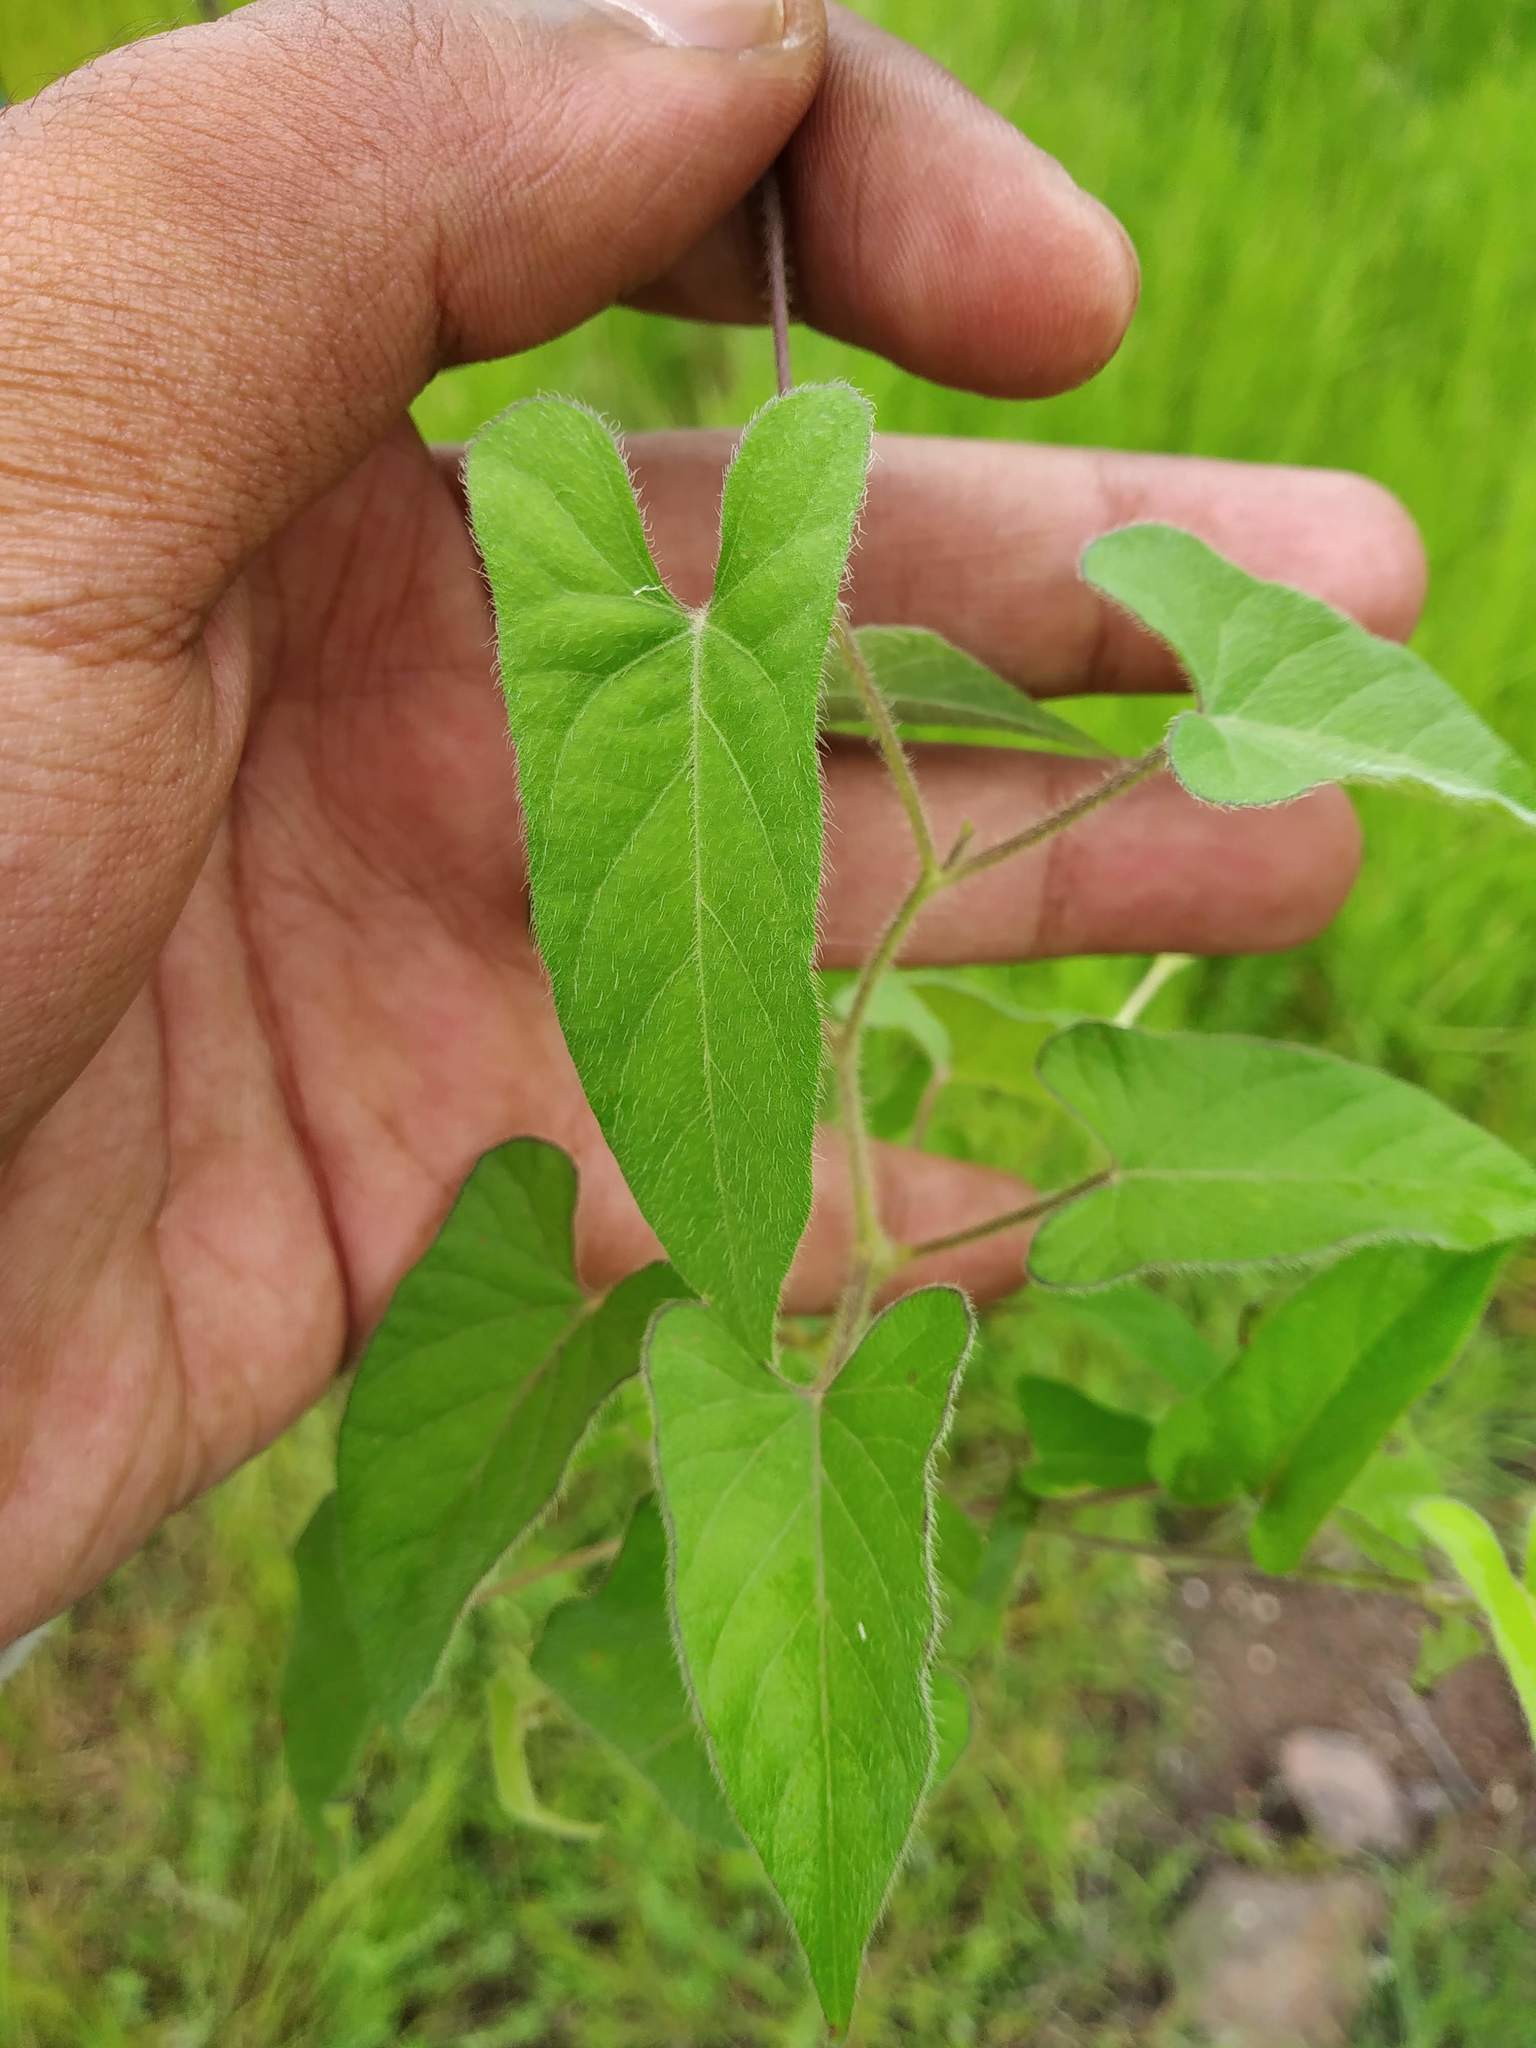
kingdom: Plantae
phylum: Tracheophyta
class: Magnoliopsida
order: Solanales
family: Convolvulaceae
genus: Ipomoea
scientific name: Ipomoea eriocarpa
